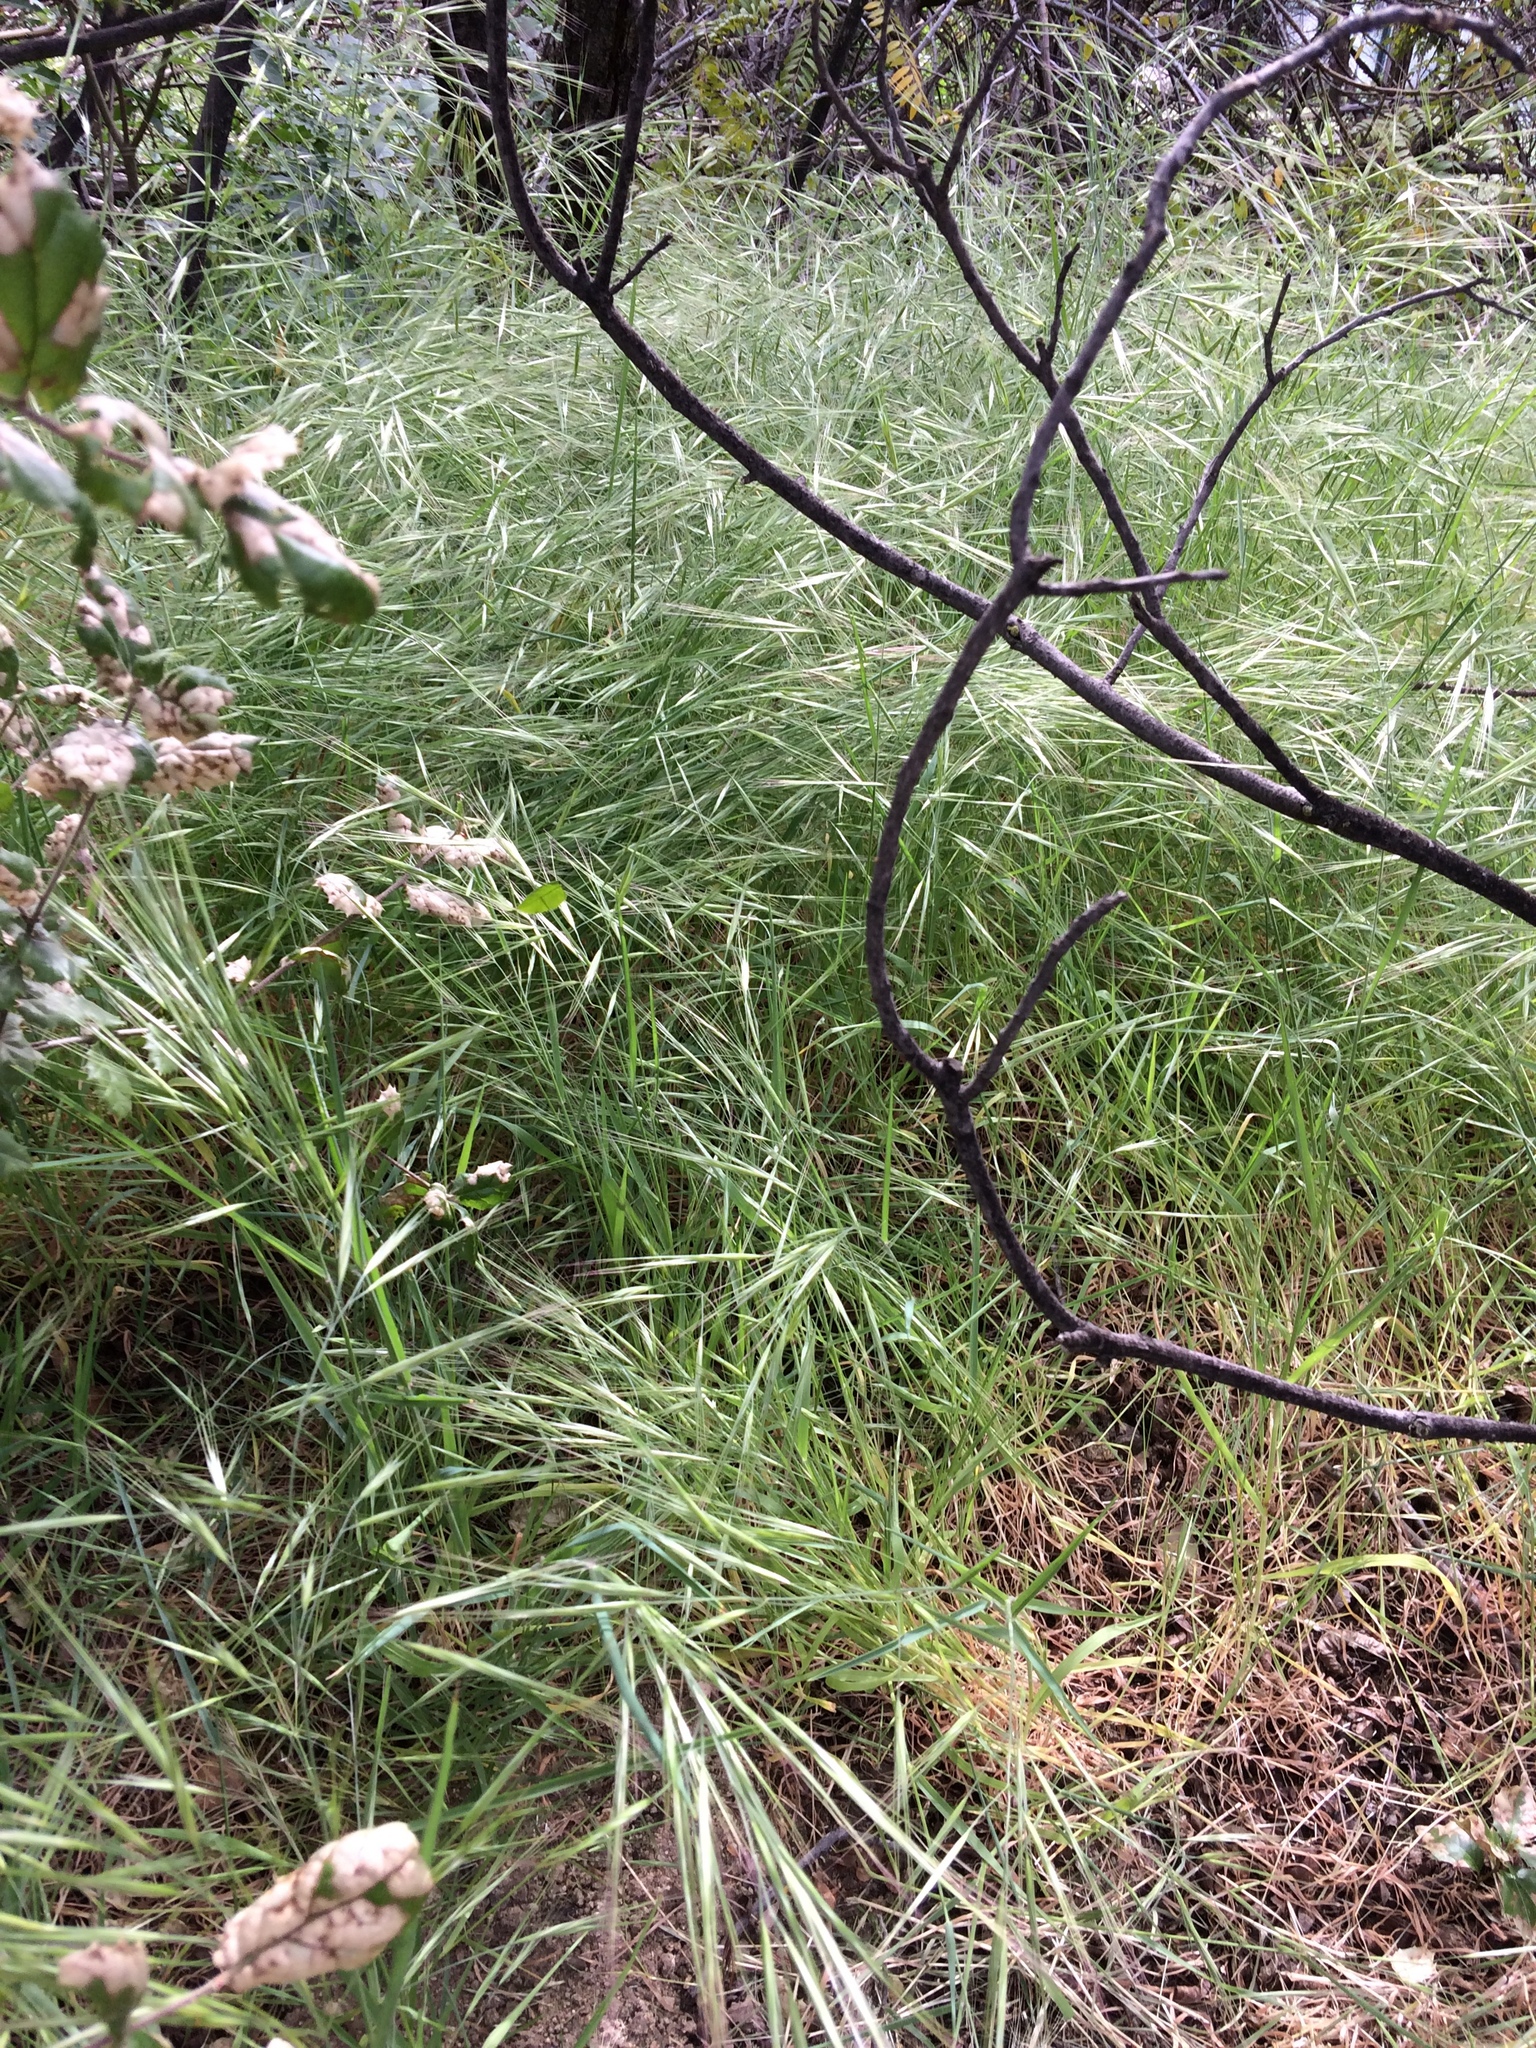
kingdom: Plantae
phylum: Tracheophyta
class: Liliopsida
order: Poales
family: Poaceae
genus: Bromus
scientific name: Bromus diandrus
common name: Ripgut brome
